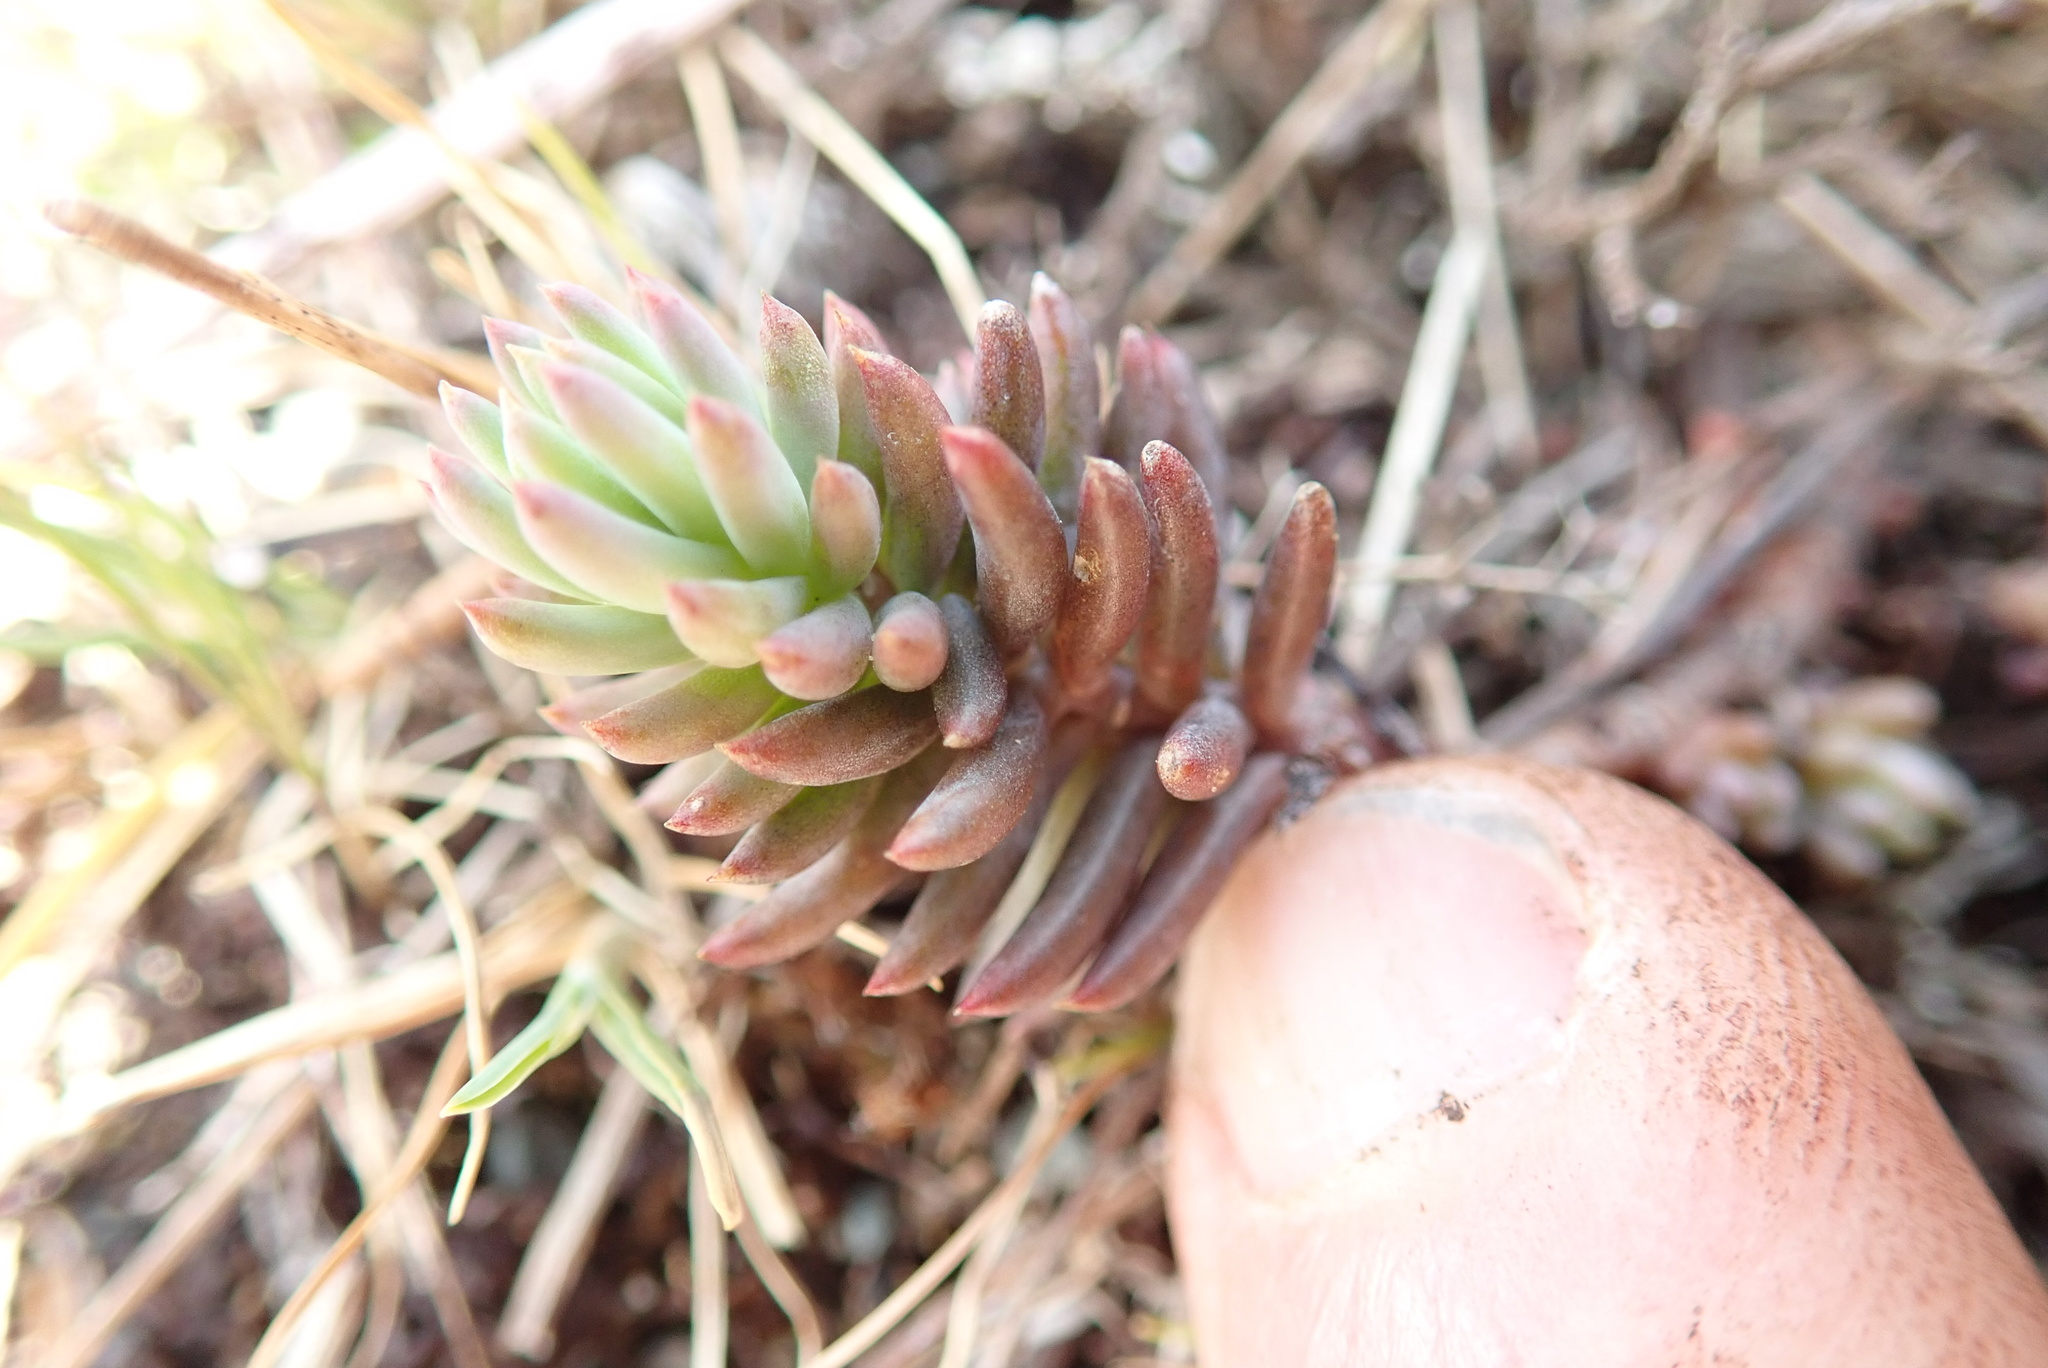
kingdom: Plantae
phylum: Tracheophyta
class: Magnoliopsida
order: Saxifragales
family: Crassulaceae
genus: Sedum
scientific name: Sedum lanceolatum
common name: Common stonecrop
